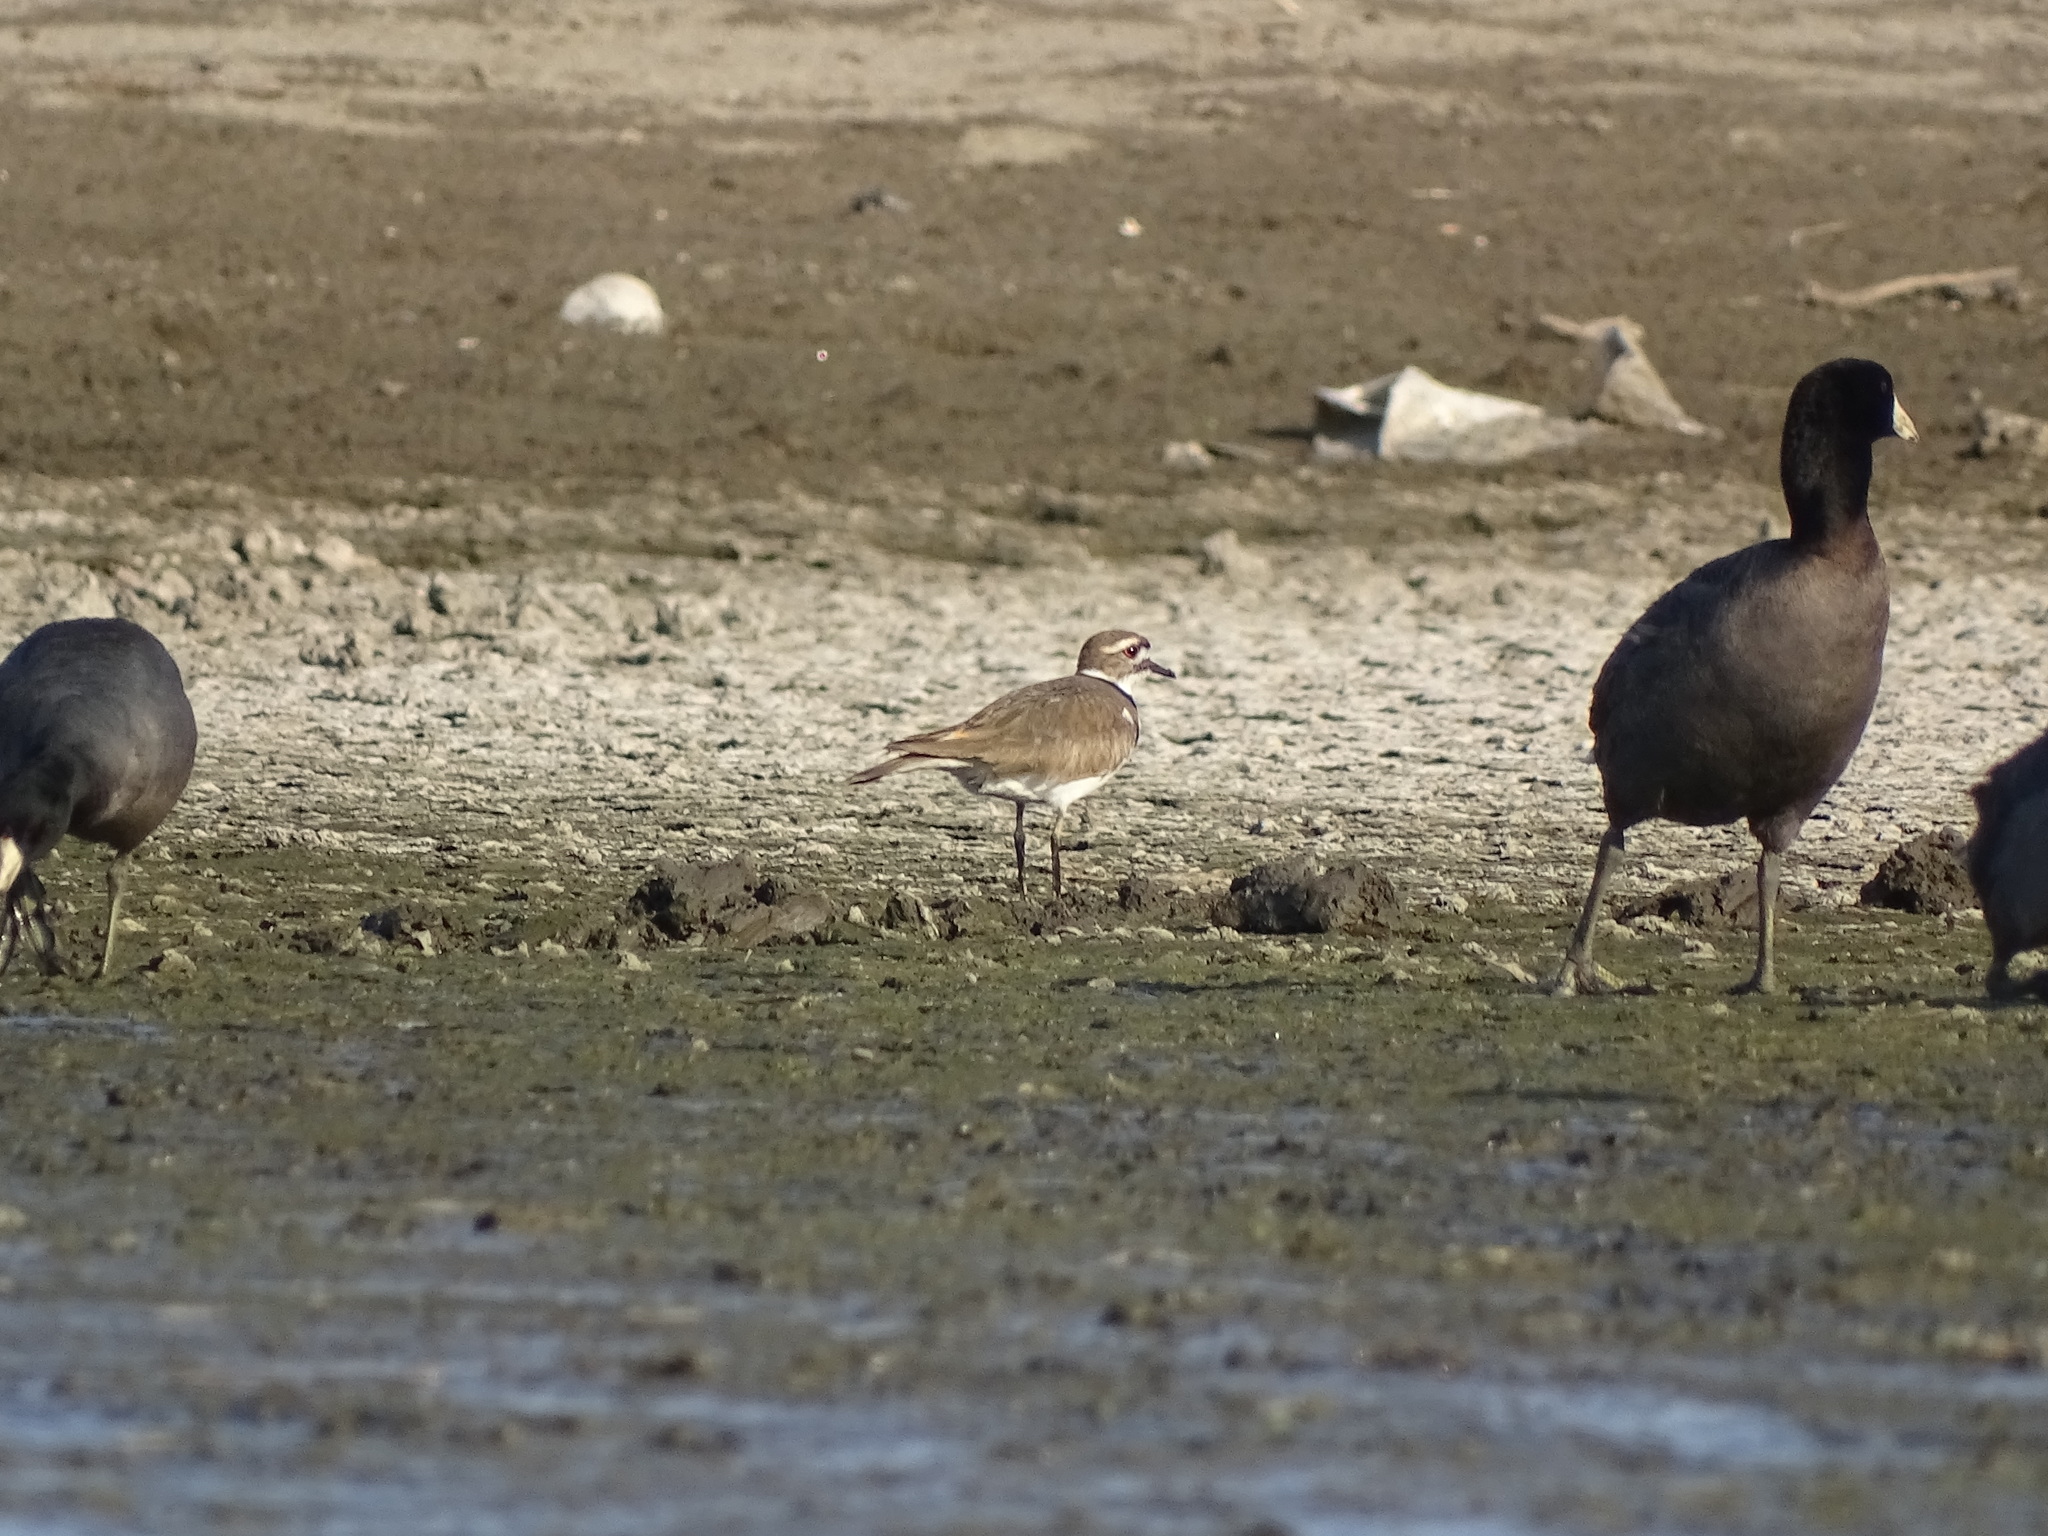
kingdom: Animalia
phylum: Chordata
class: Aves
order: Charadriiformes
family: Charadriidae
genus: Charadrius
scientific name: Charadrius vociferus
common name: Killdeer
